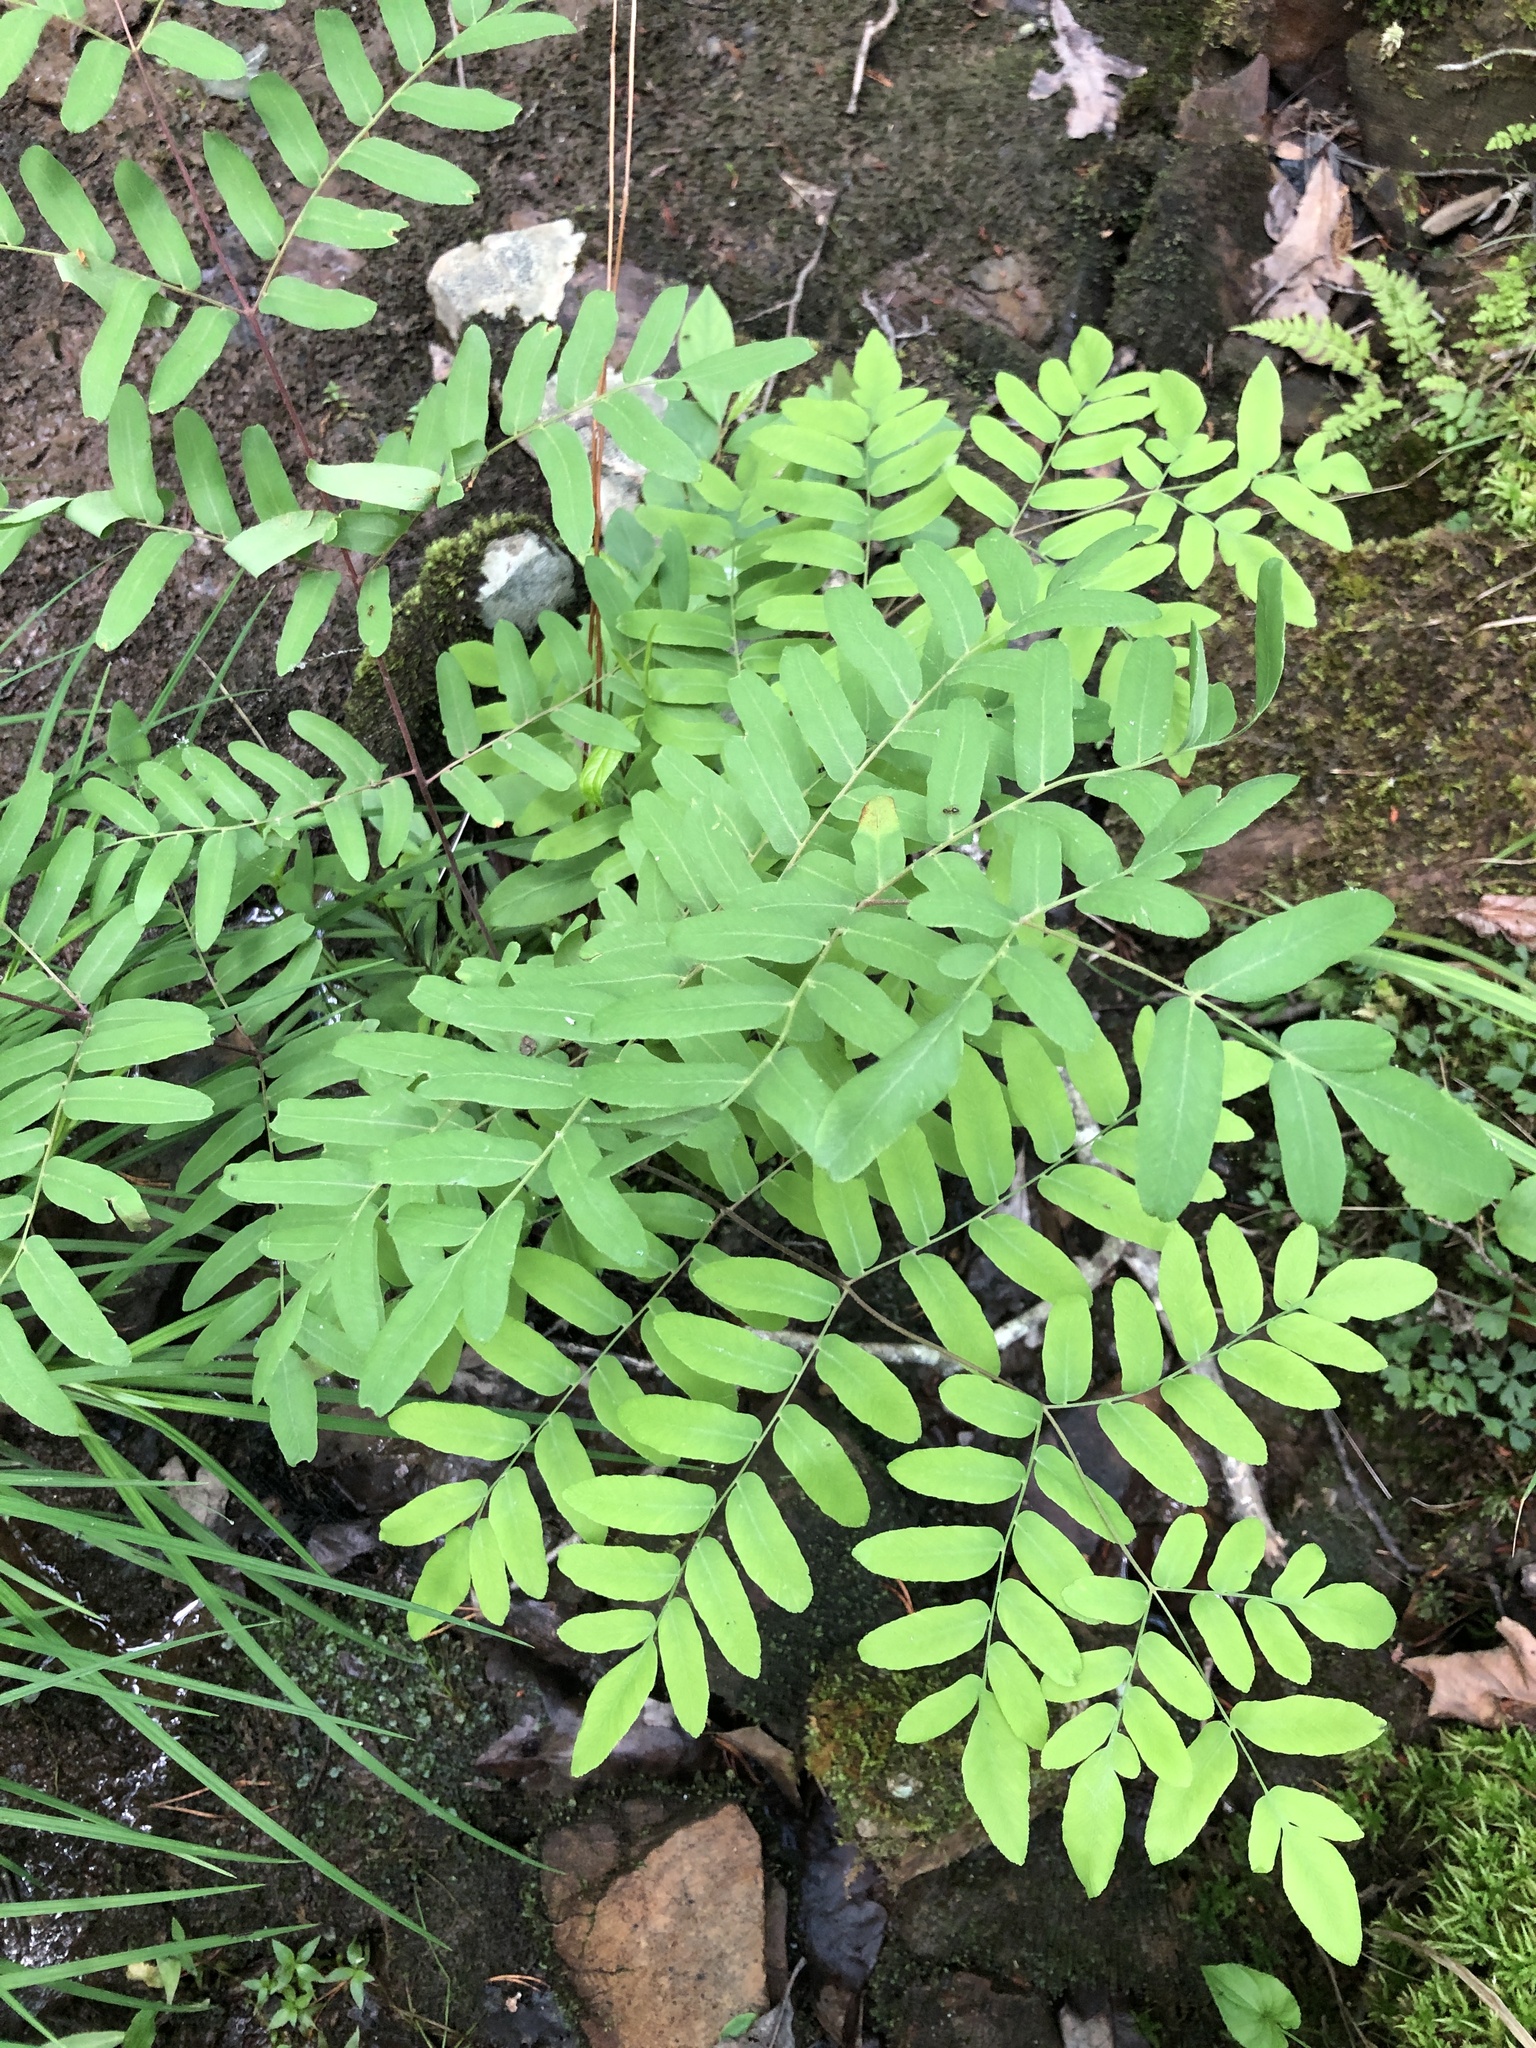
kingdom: Plantae
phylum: Tracheophyta
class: Polypodiopsida
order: Osmundales
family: Osmundaceae
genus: Osmunda
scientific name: Osmunda spectabilis
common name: American royal fern
